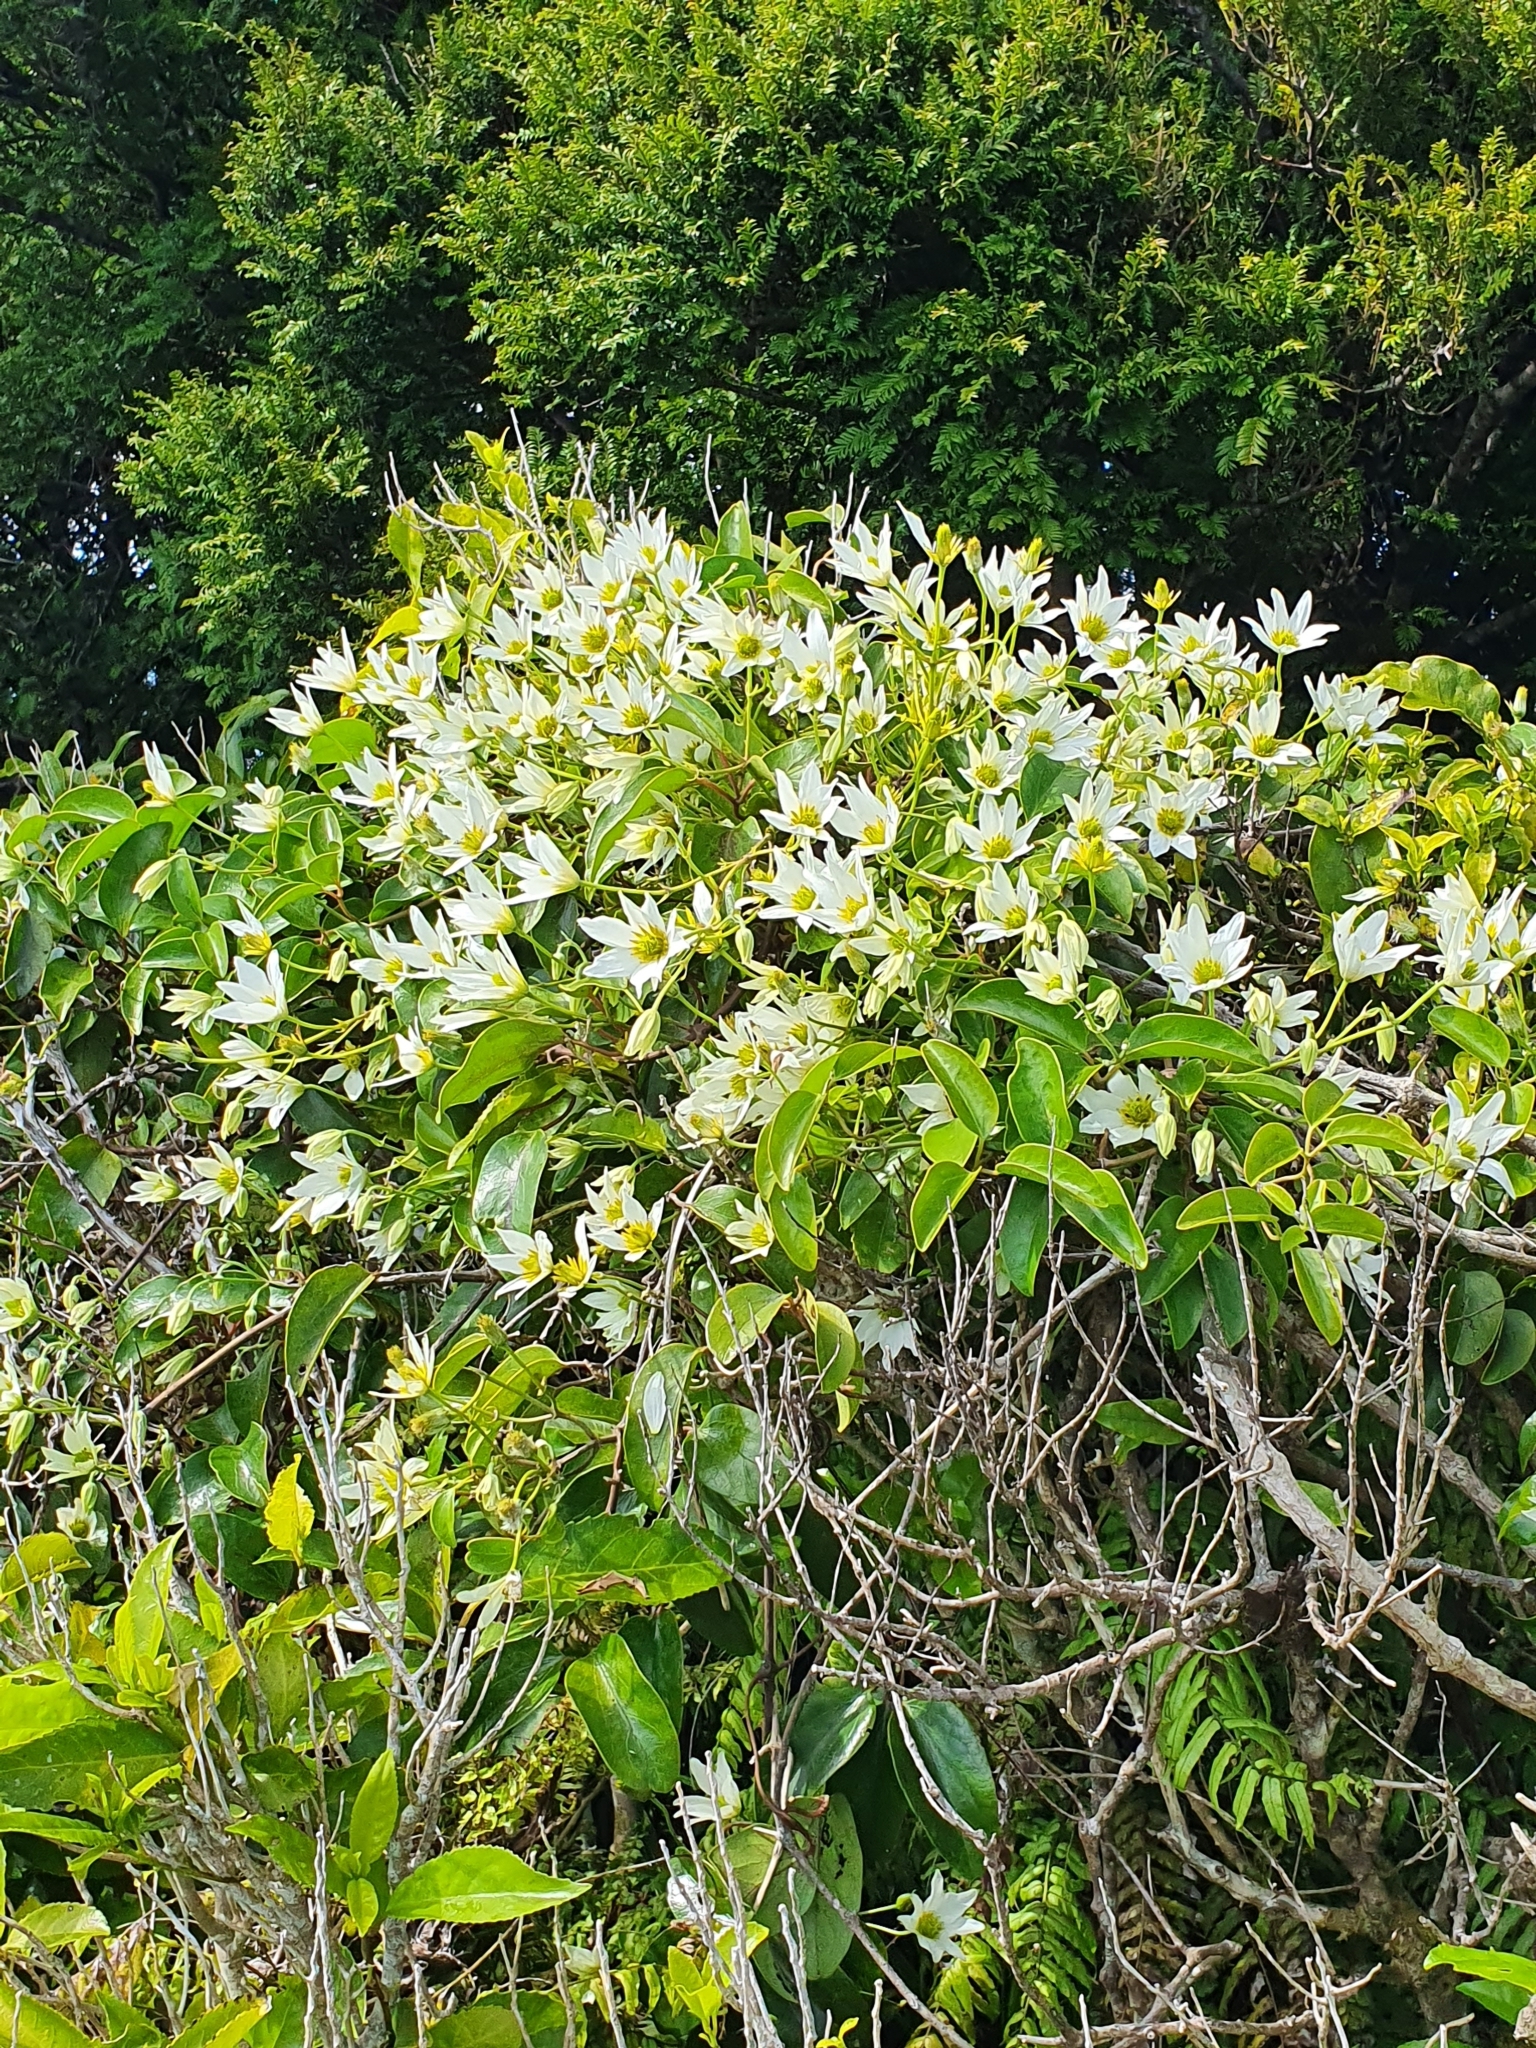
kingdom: Plantae
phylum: Tracheophyta
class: Magnoliopsida
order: Ranunculales
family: Ranunculaceae
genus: Clematis
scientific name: Clematis paniculata
